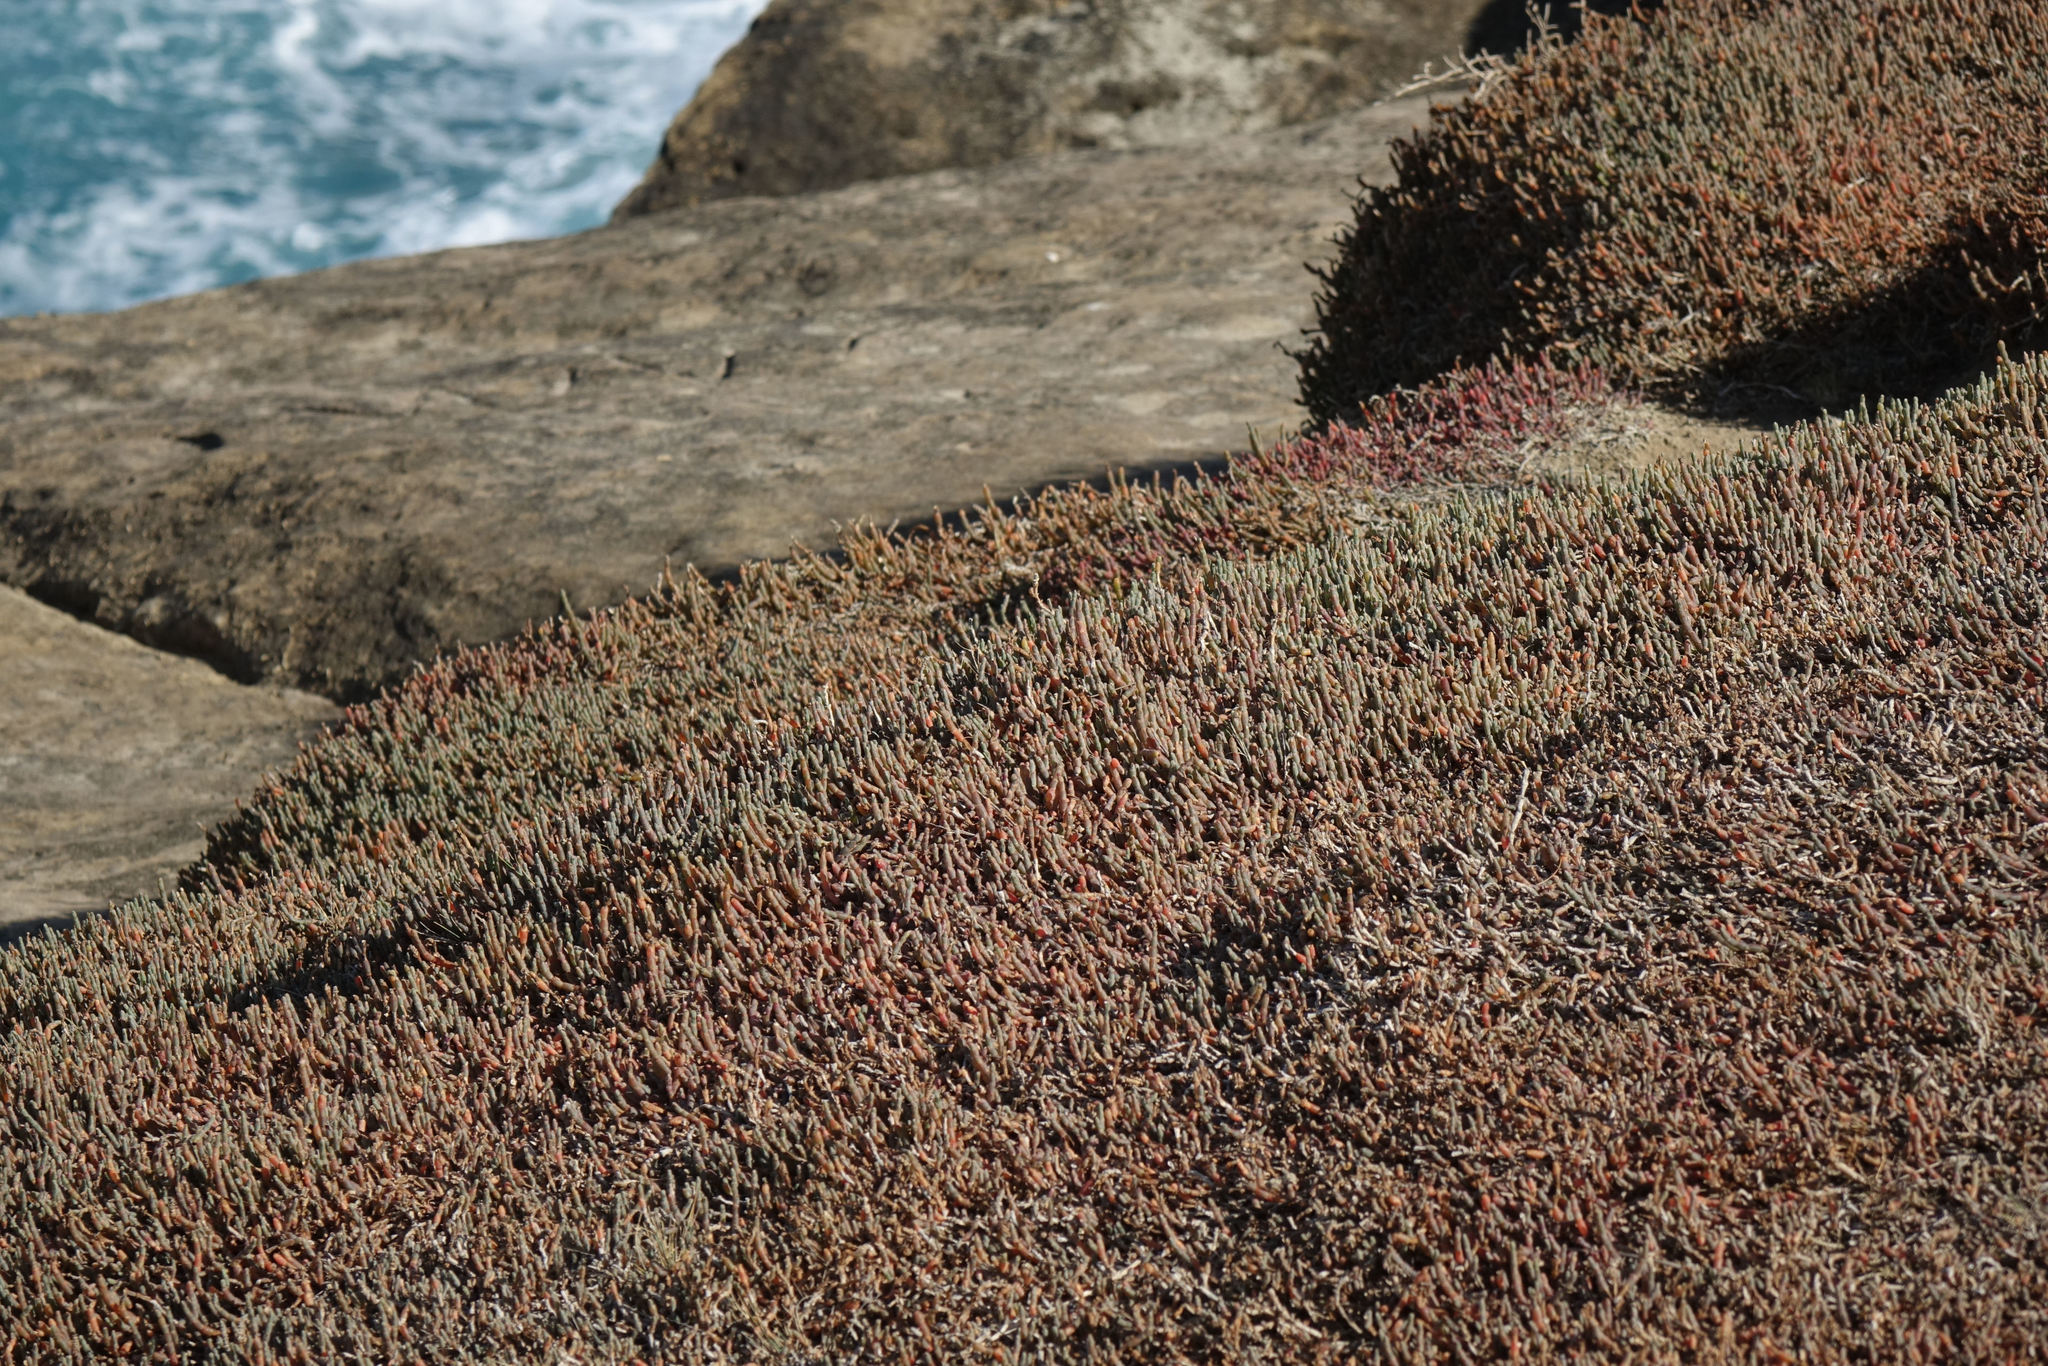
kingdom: Plantae
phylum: Tracheophyta
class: Magnoliopsida
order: Caryophyllales
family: Amaranthaceae
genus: Salicornia
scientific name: Salicornia quinqueflora
